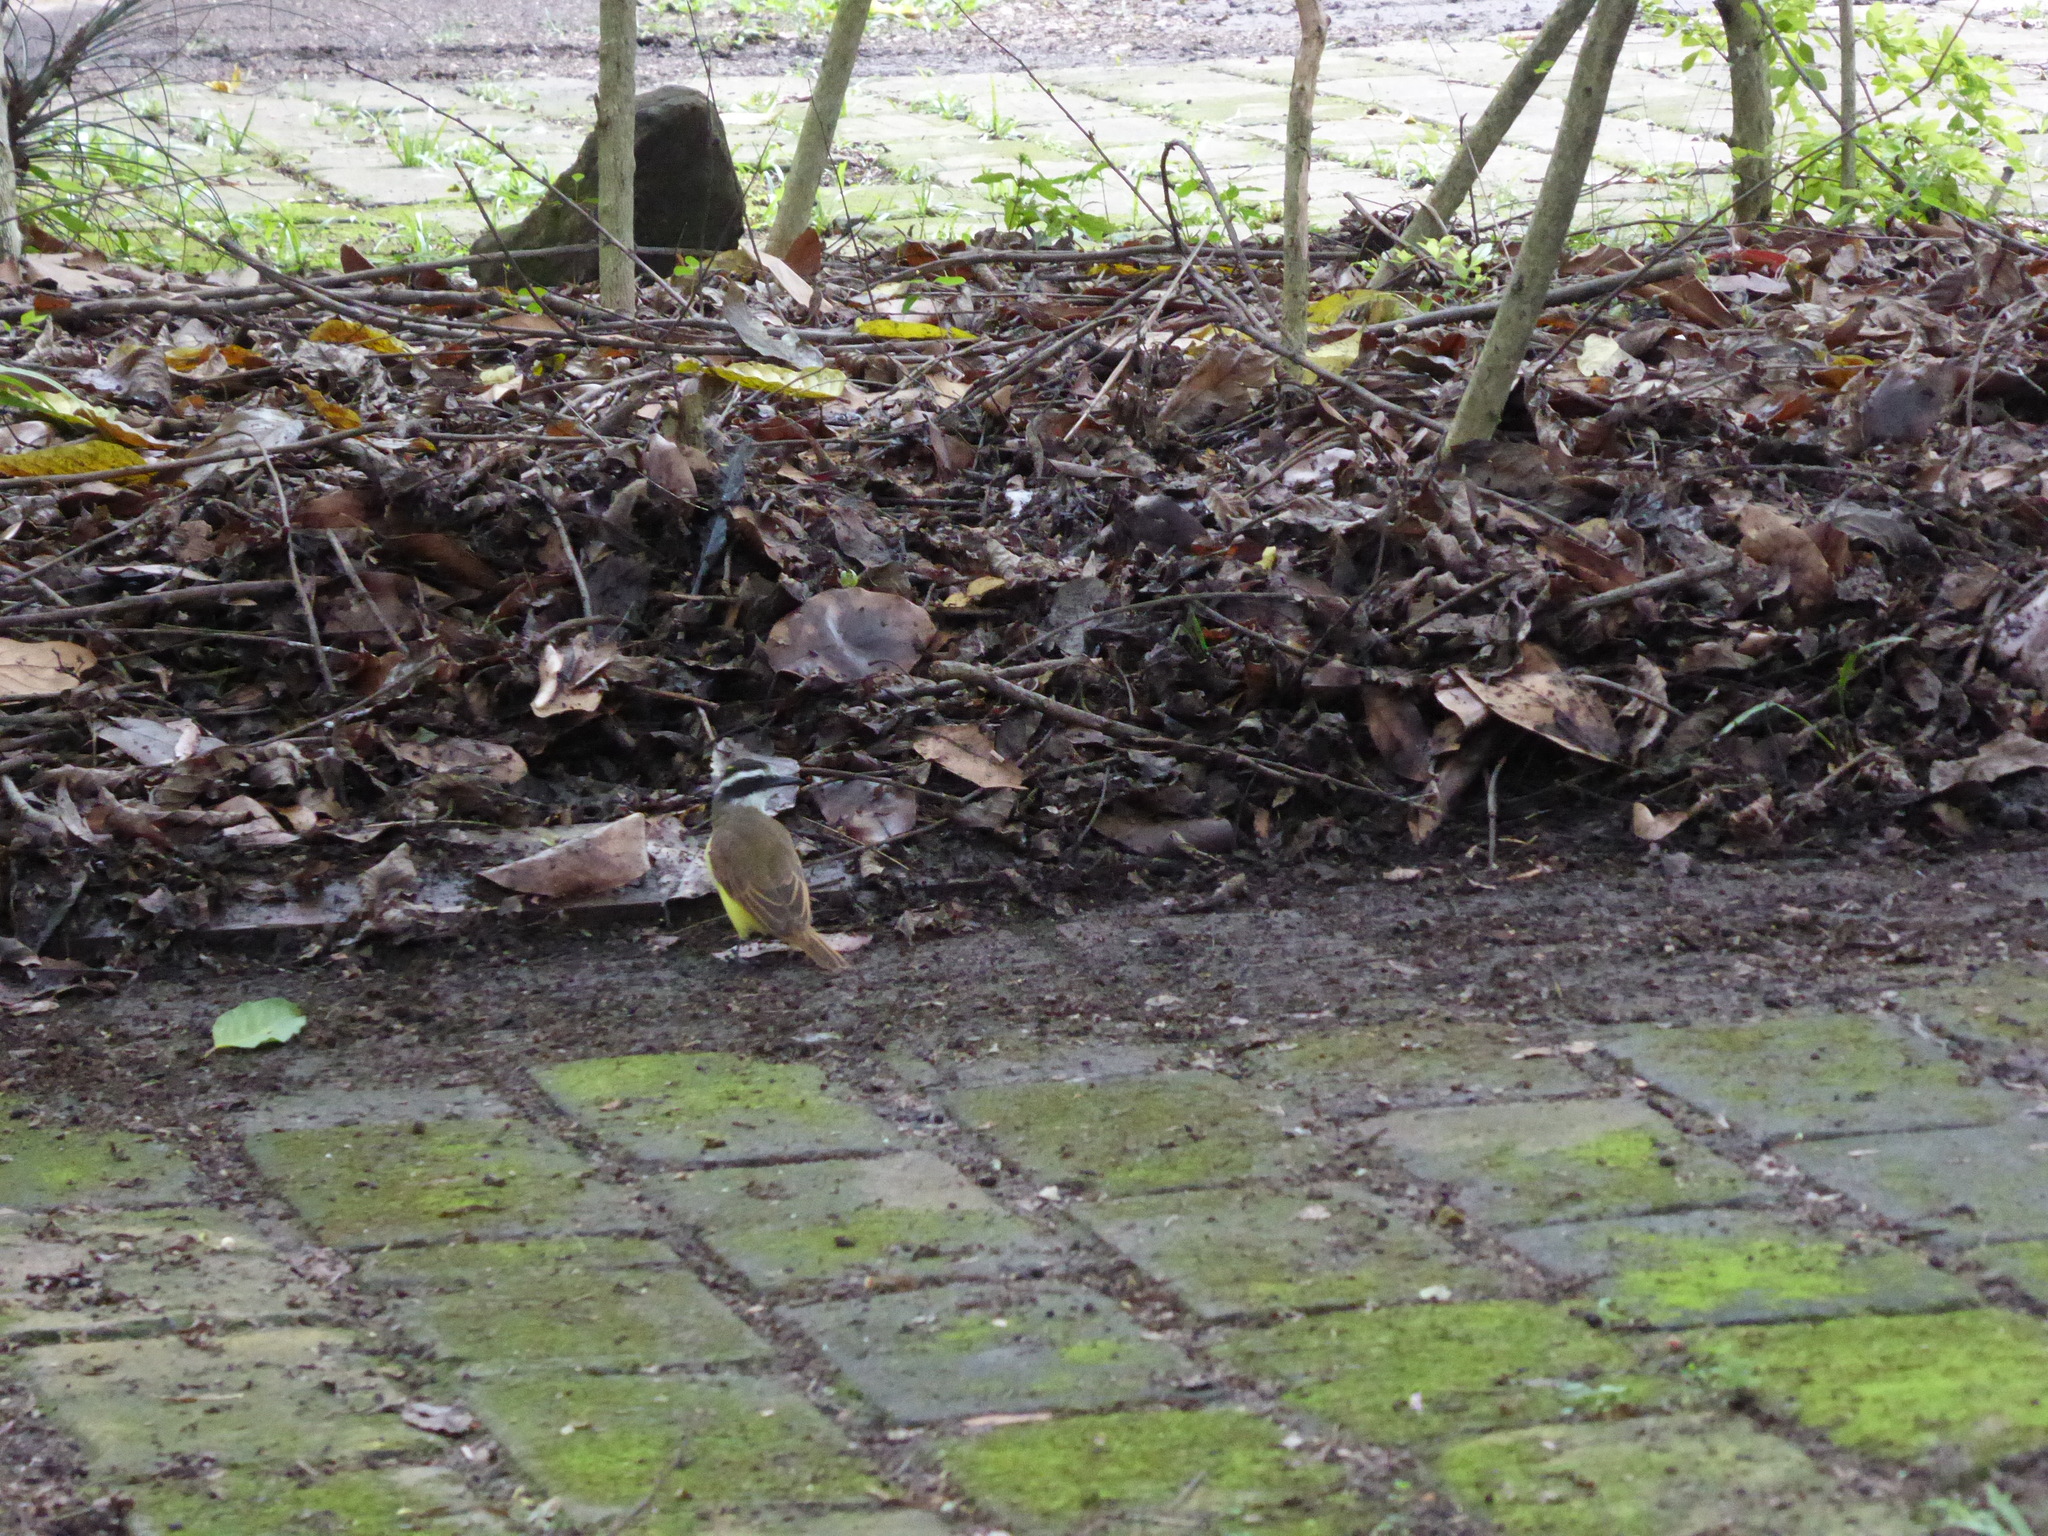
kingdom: Animalia
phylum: Chordata
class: Aves
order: Passeriformes
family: Tyrannidae
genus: Pitangus
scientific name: Pitangus sulphuratus
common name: Great kiskadee
